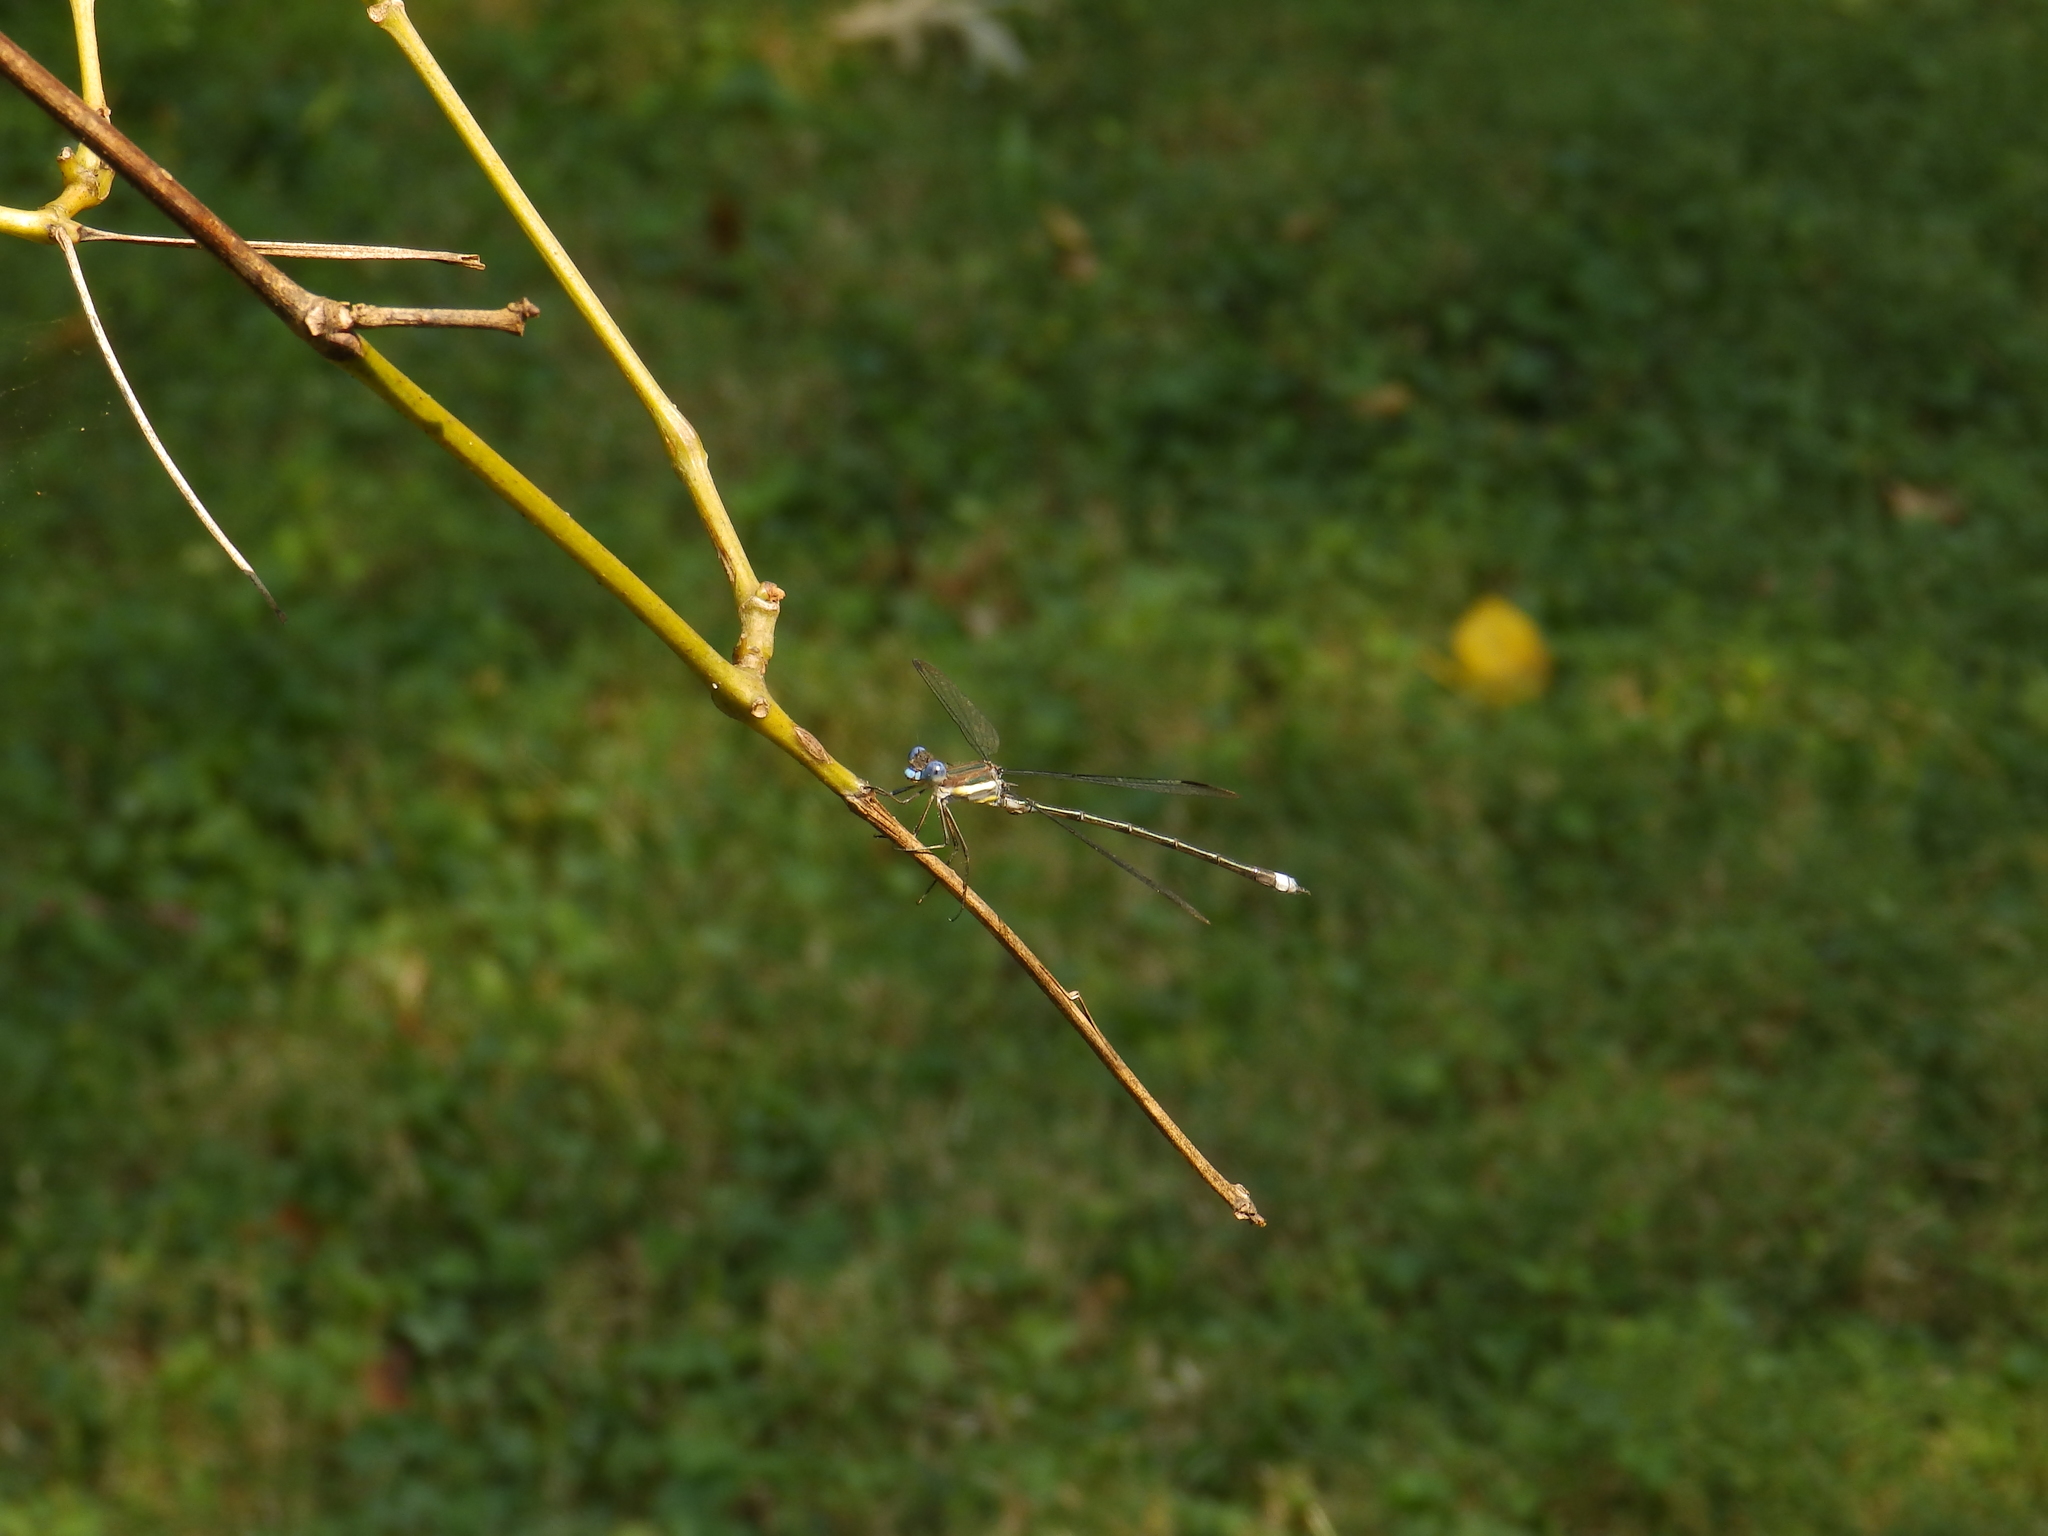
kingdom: Animalia
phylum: Arthropoda
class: Insecta
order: Odonata
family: Lestidae
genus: Archilestes
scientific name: Archilestes grandis
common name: Great spreadwing
